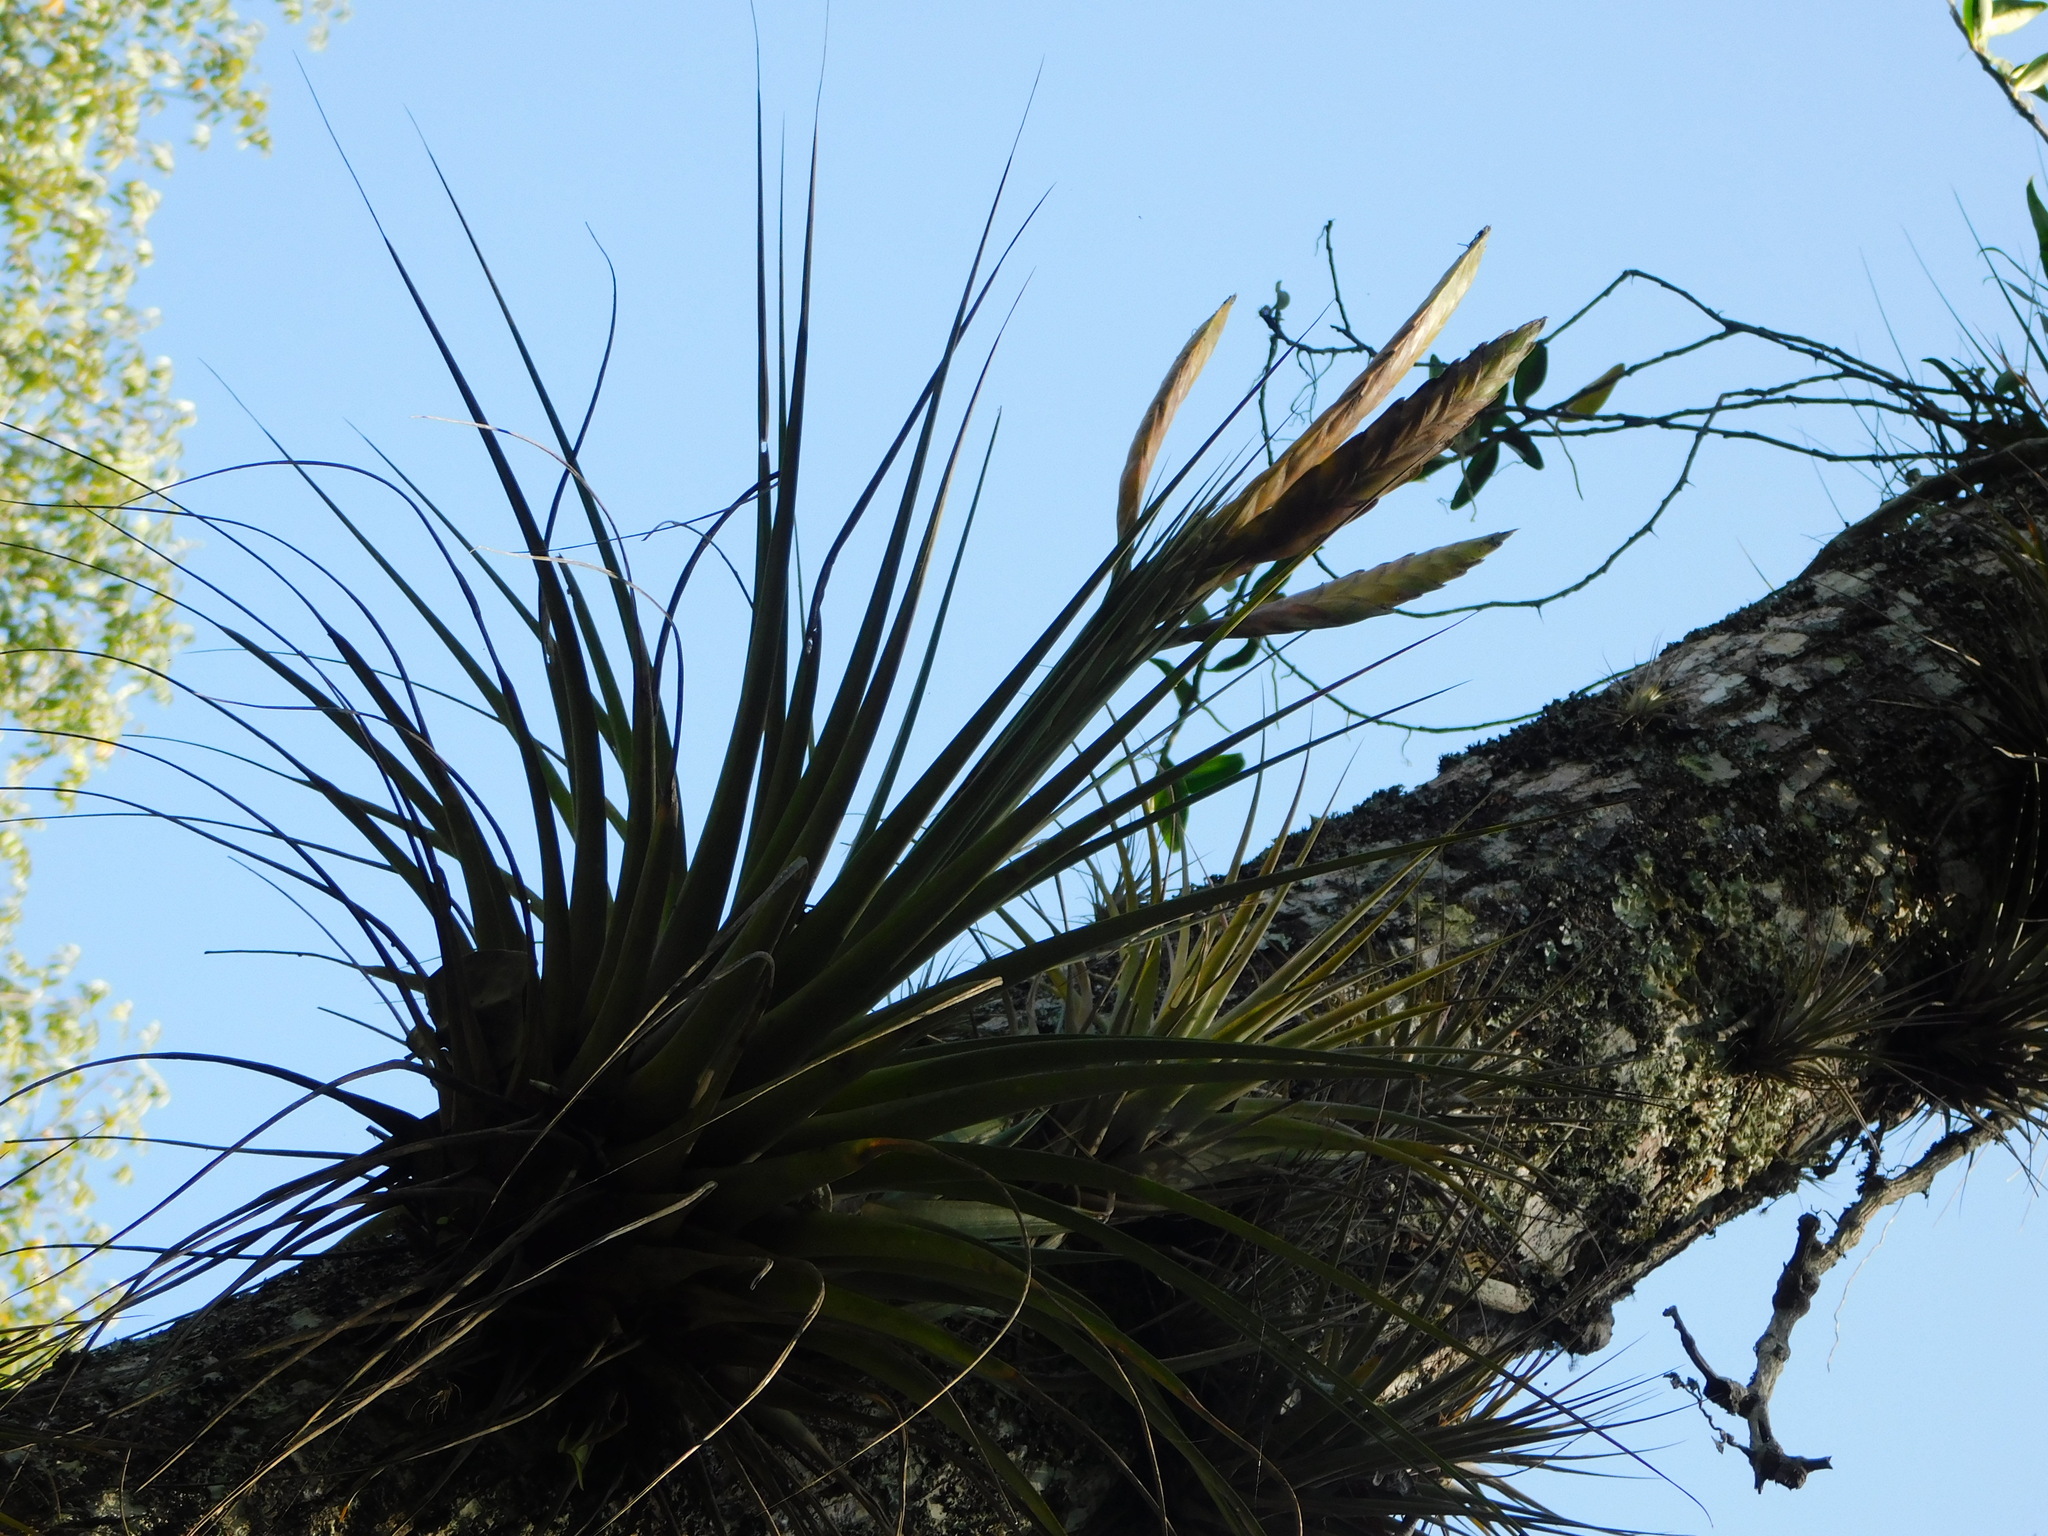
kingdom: Plantae
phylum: Tracheophyta
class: Liliopsida
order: Poales
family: Bromeliaceae
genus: Tillandsia
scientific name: Tillandsia flavobracteata
